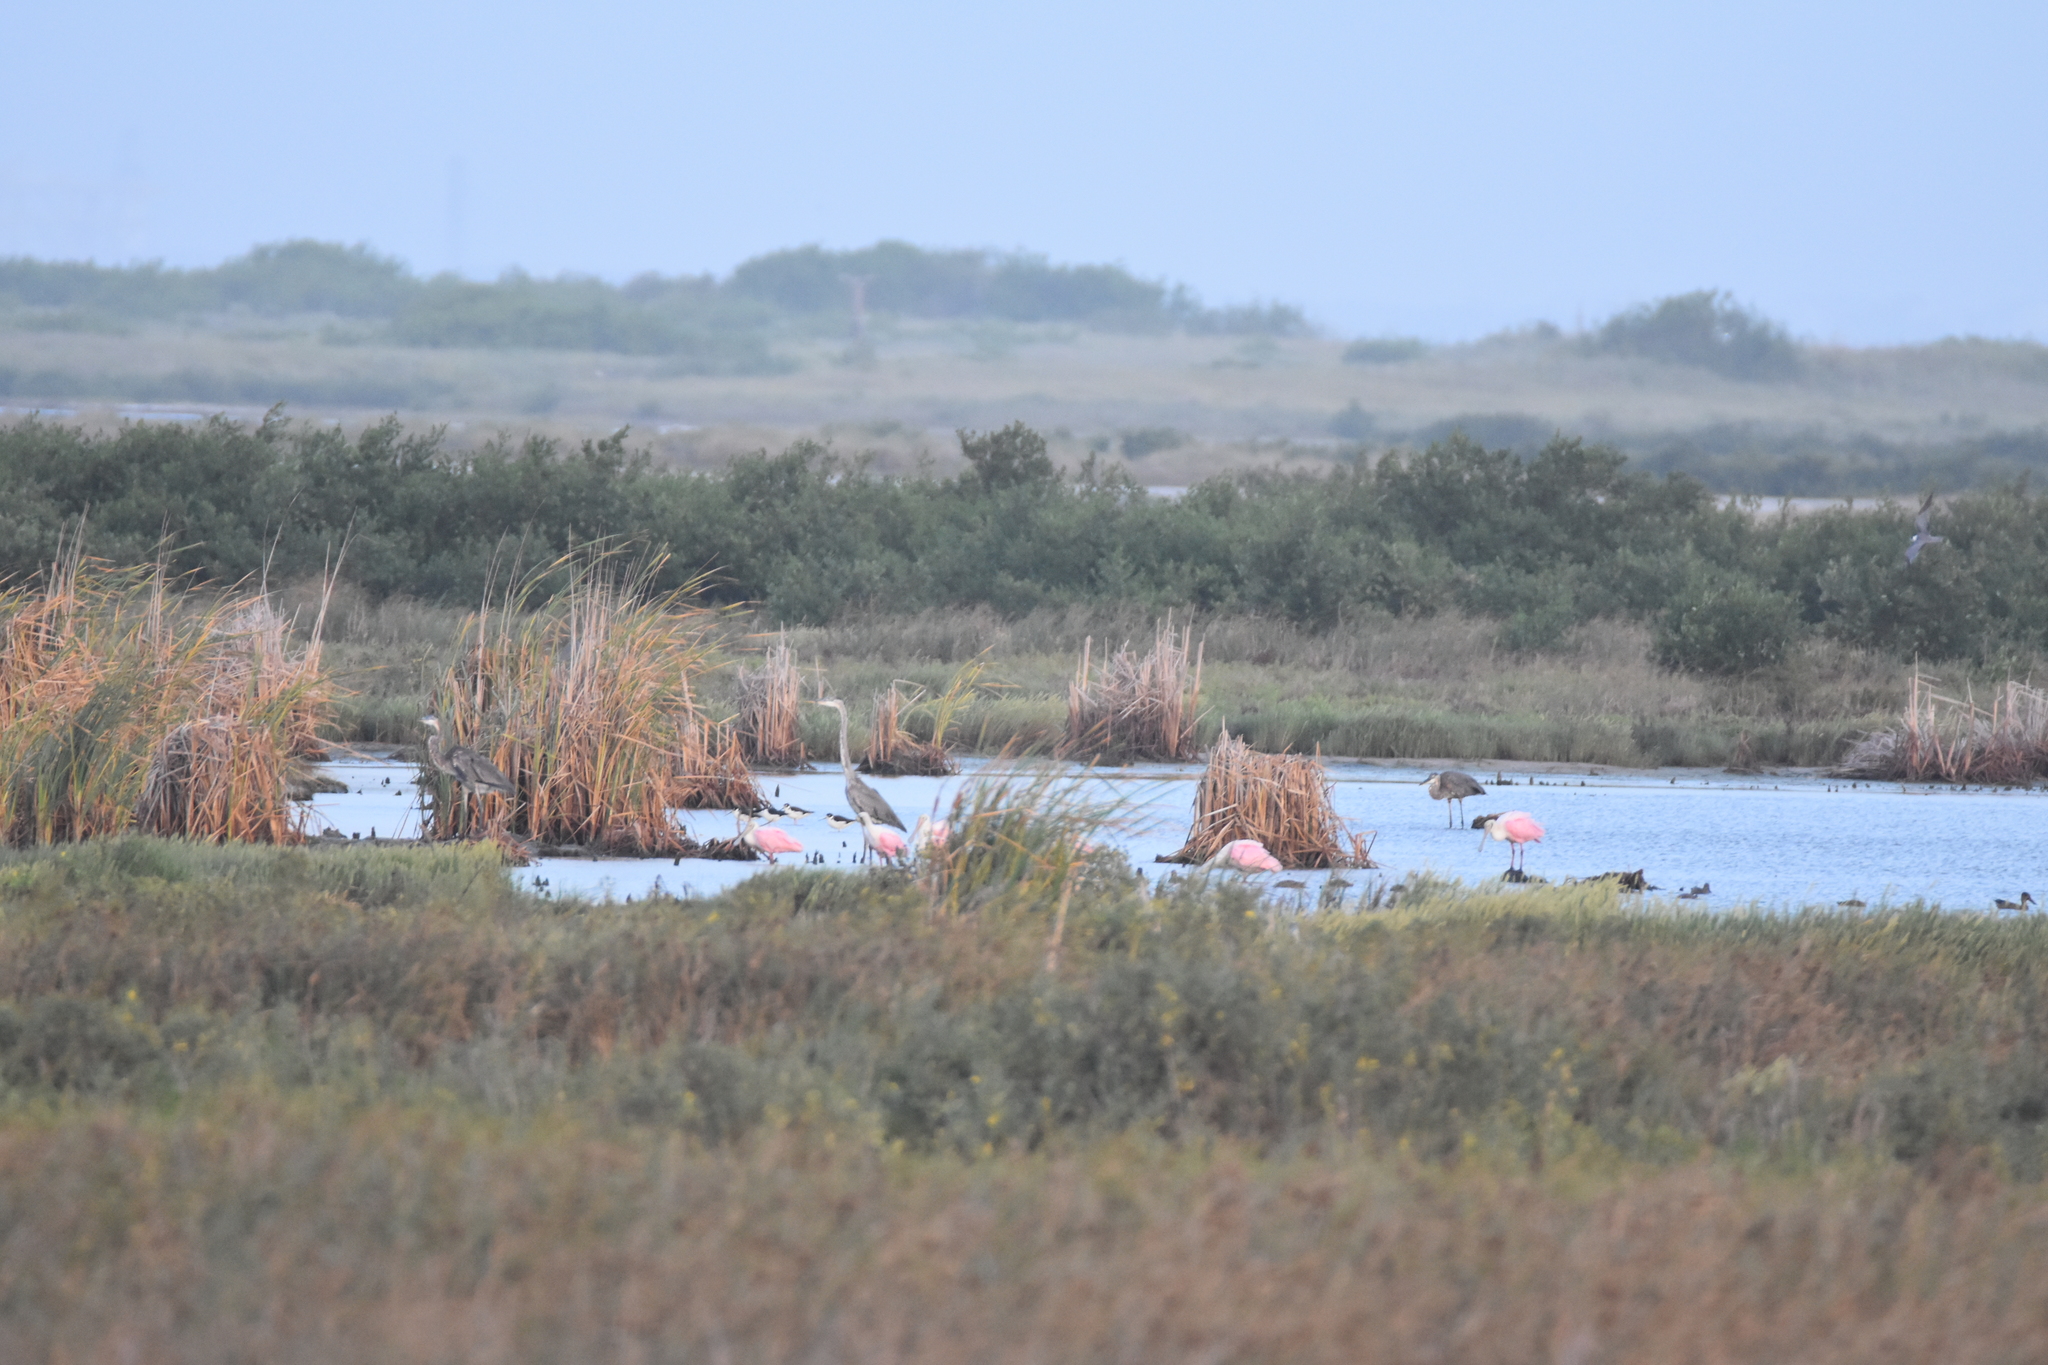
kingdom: Animalia
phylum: Chordata
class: Aves
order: Pelecaniformes
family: Threskiornithidae
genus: Platalea
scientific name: Platalea ajaja
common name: Roseate spoonbill
